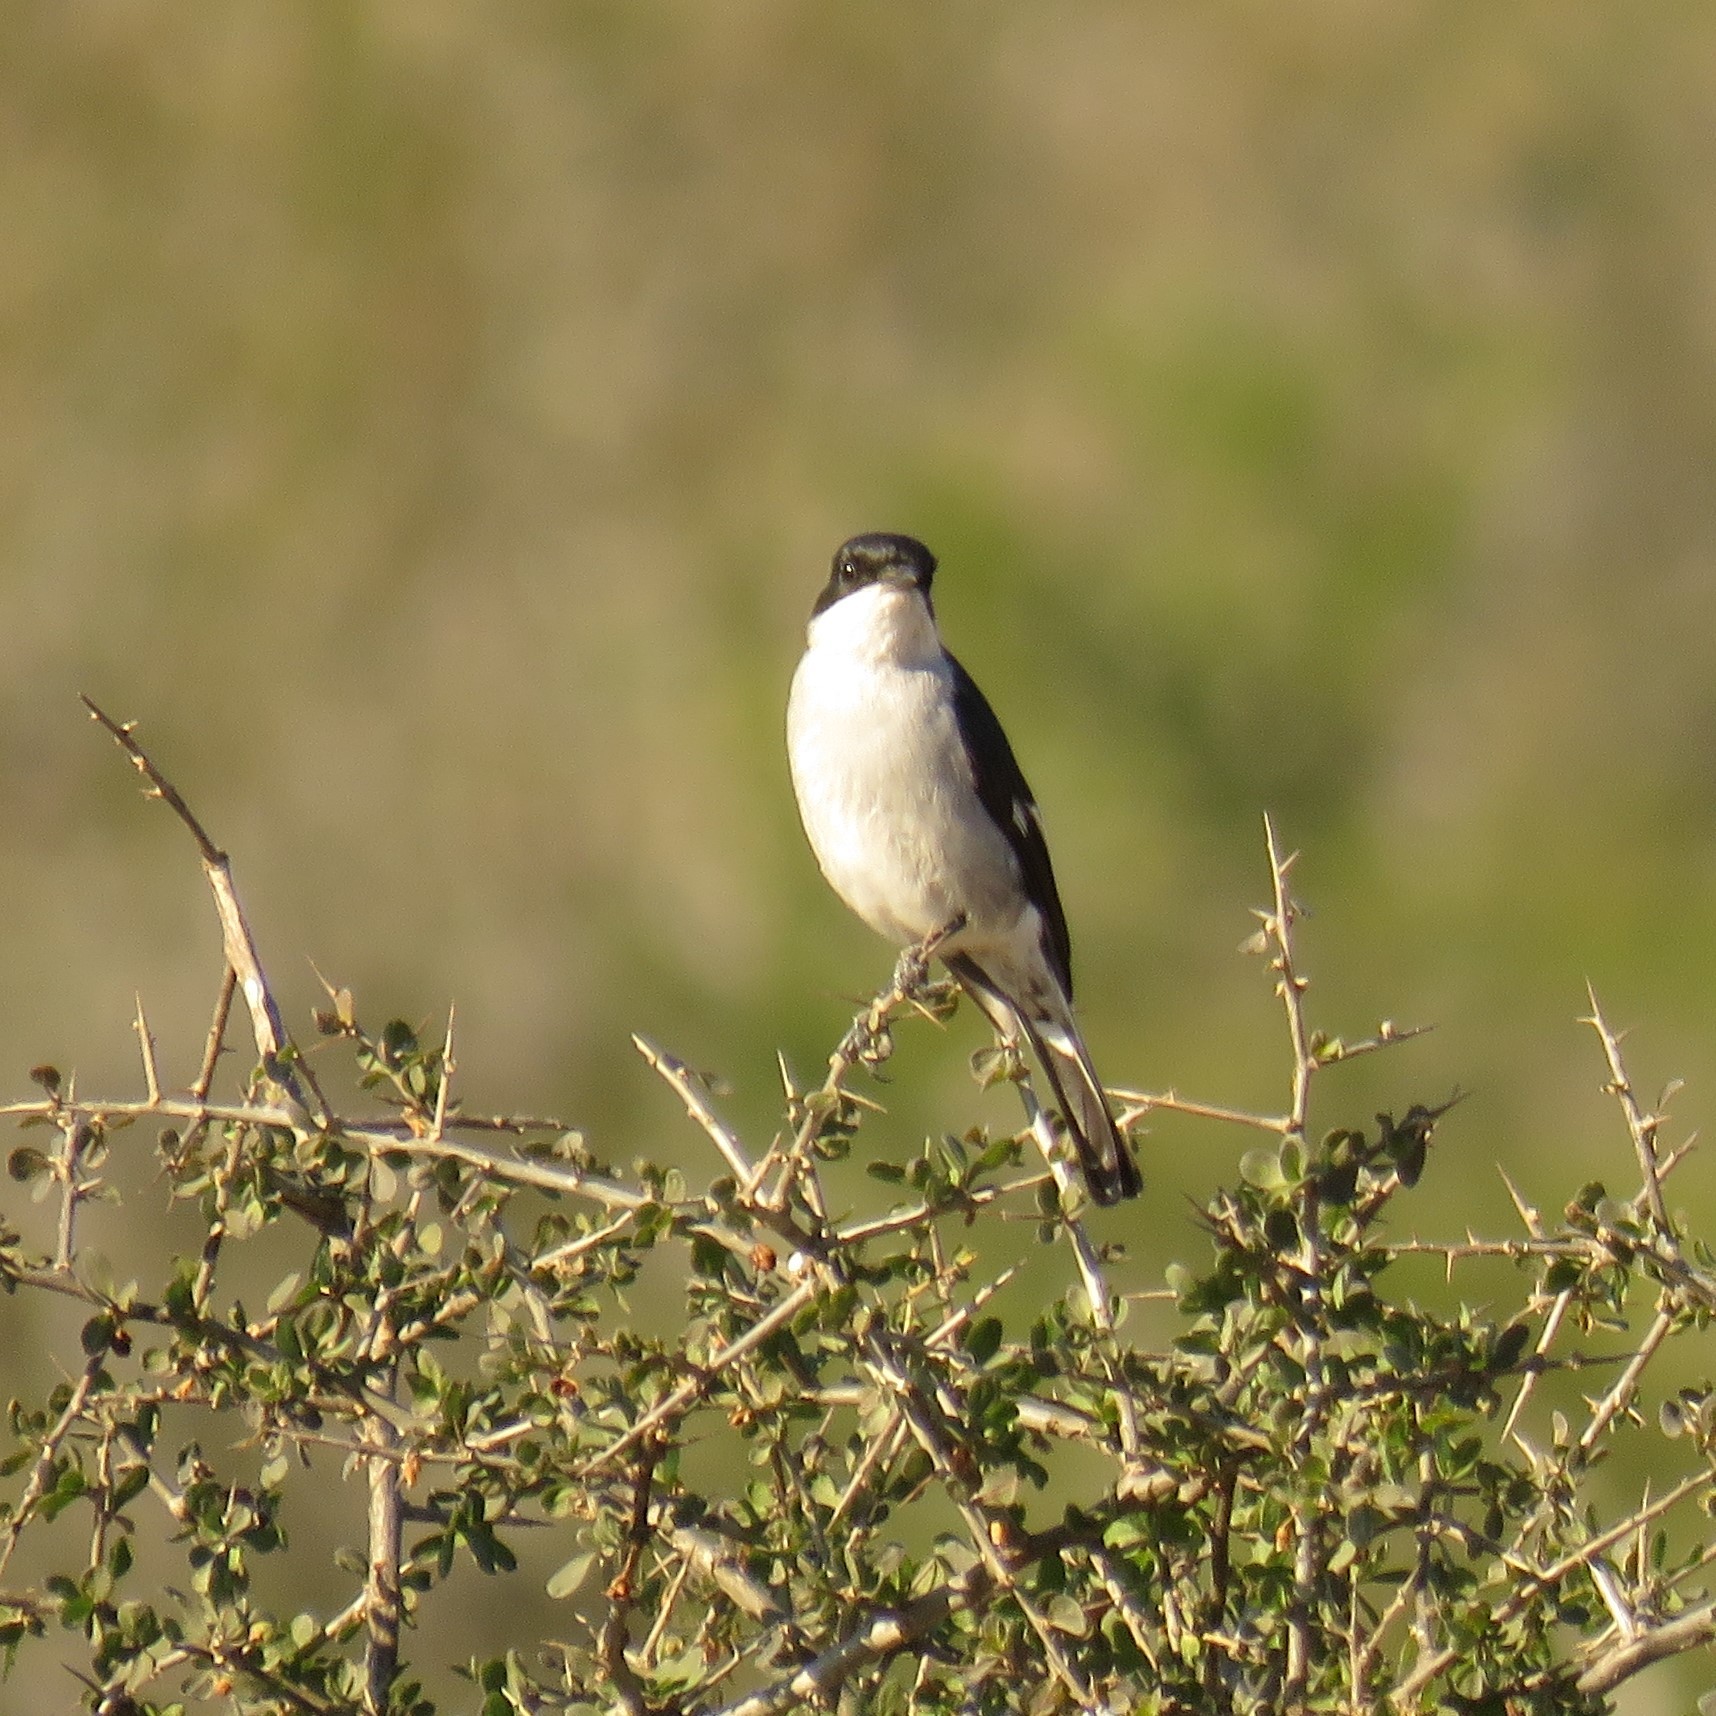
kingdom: Animalia
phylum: Chordata
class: Aves
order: Passeriformes
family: Muscicapidae
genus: Sigelus
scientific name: Sigelus silens
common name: Fiscal flycatcher
